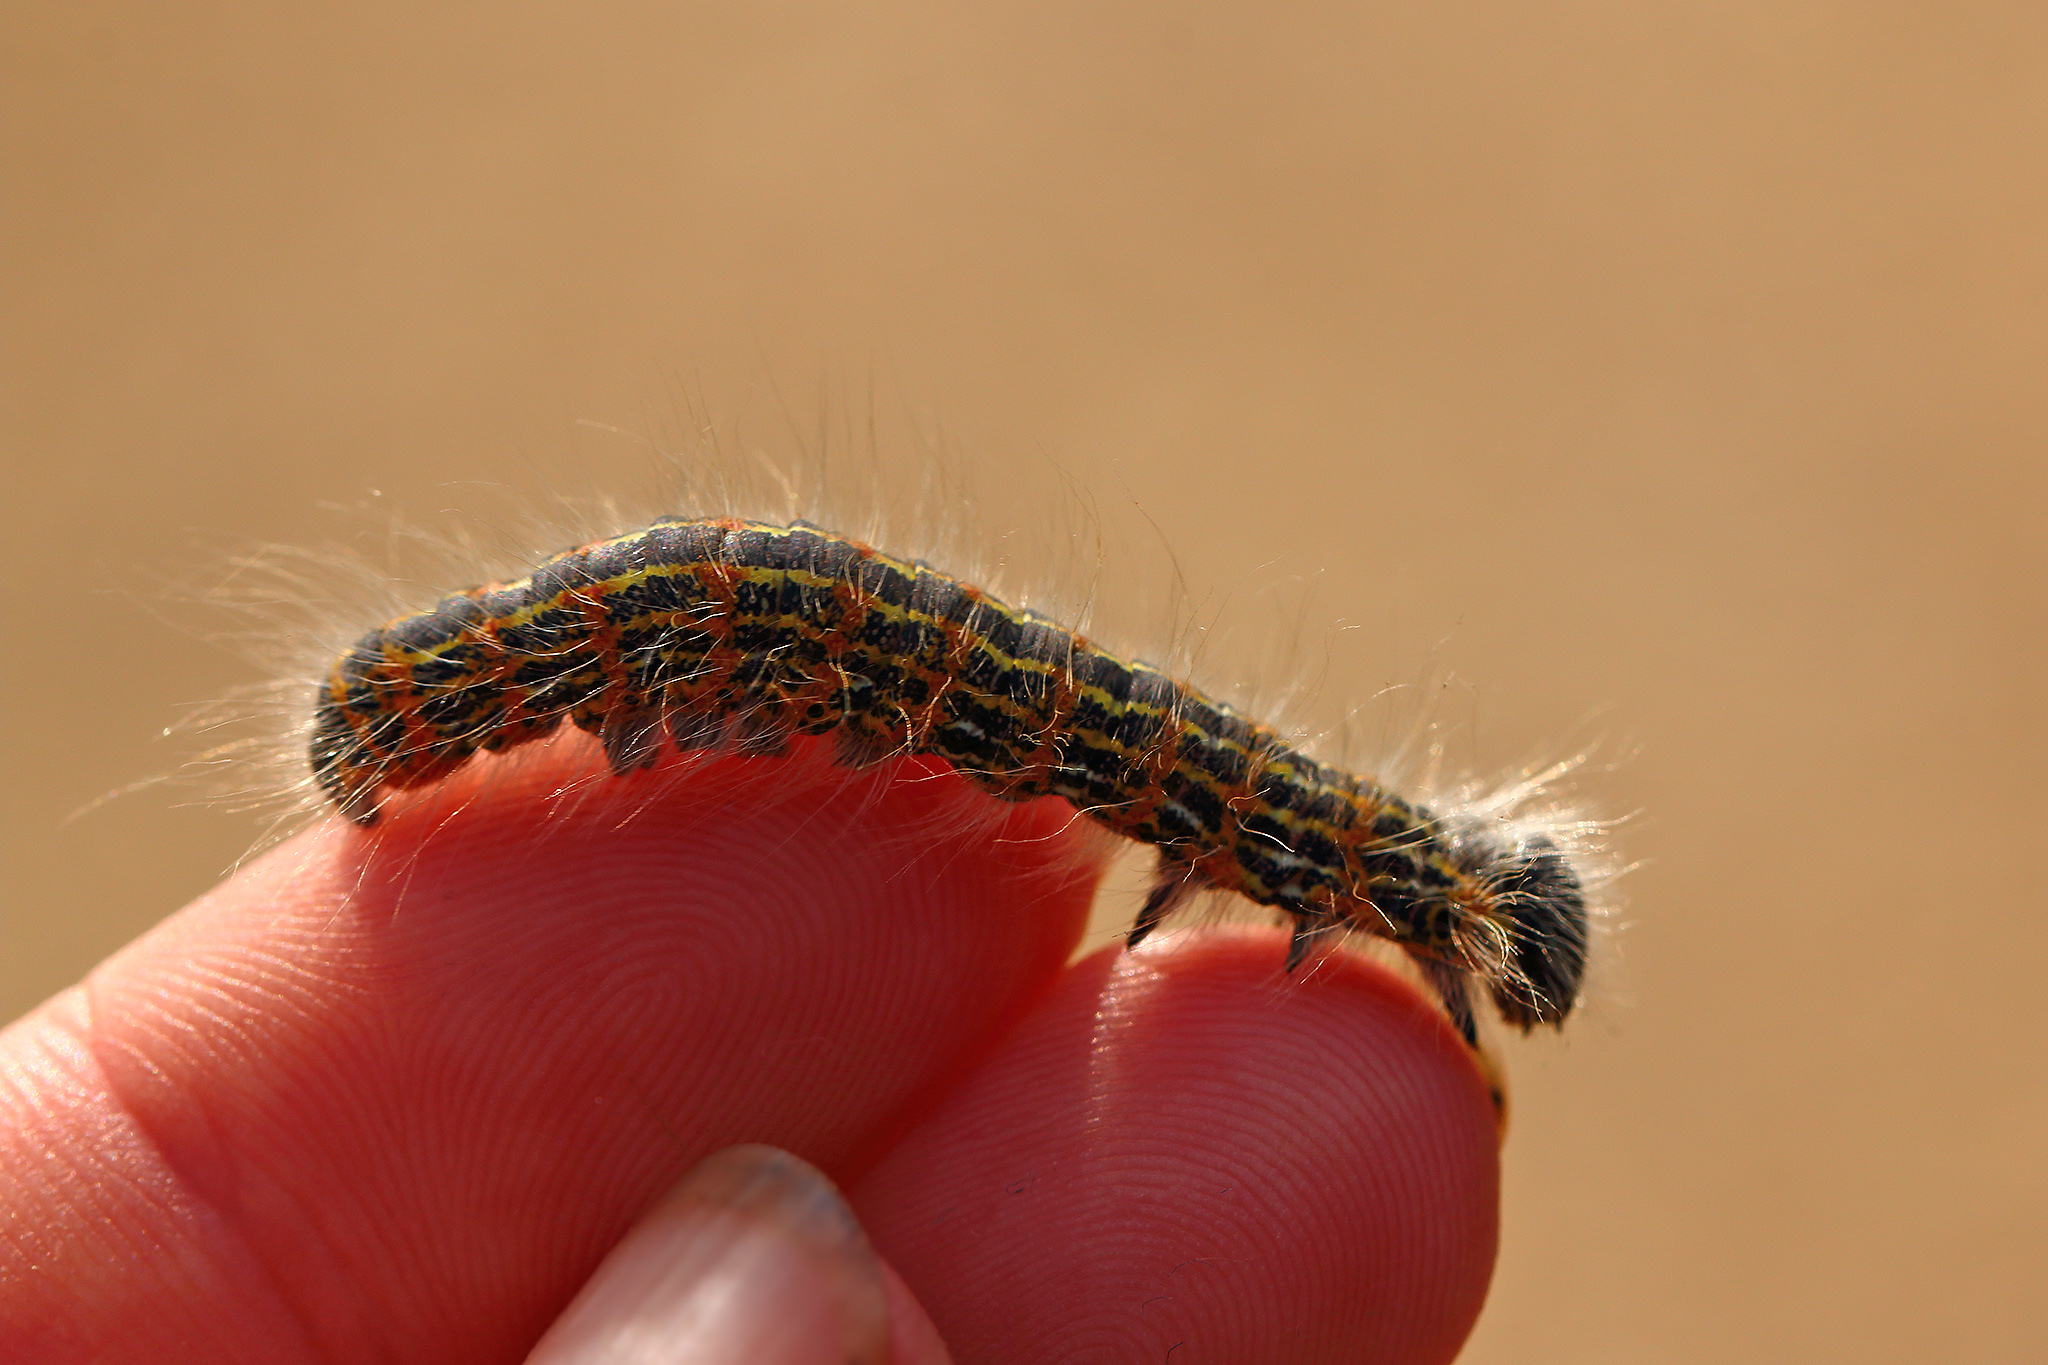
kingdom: Animalia
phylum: Arthropoda
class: Insecta
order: Lepidoptera
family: Notodontidae
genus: Phalera
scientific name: Phalera bucephala
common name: Buff-tip
